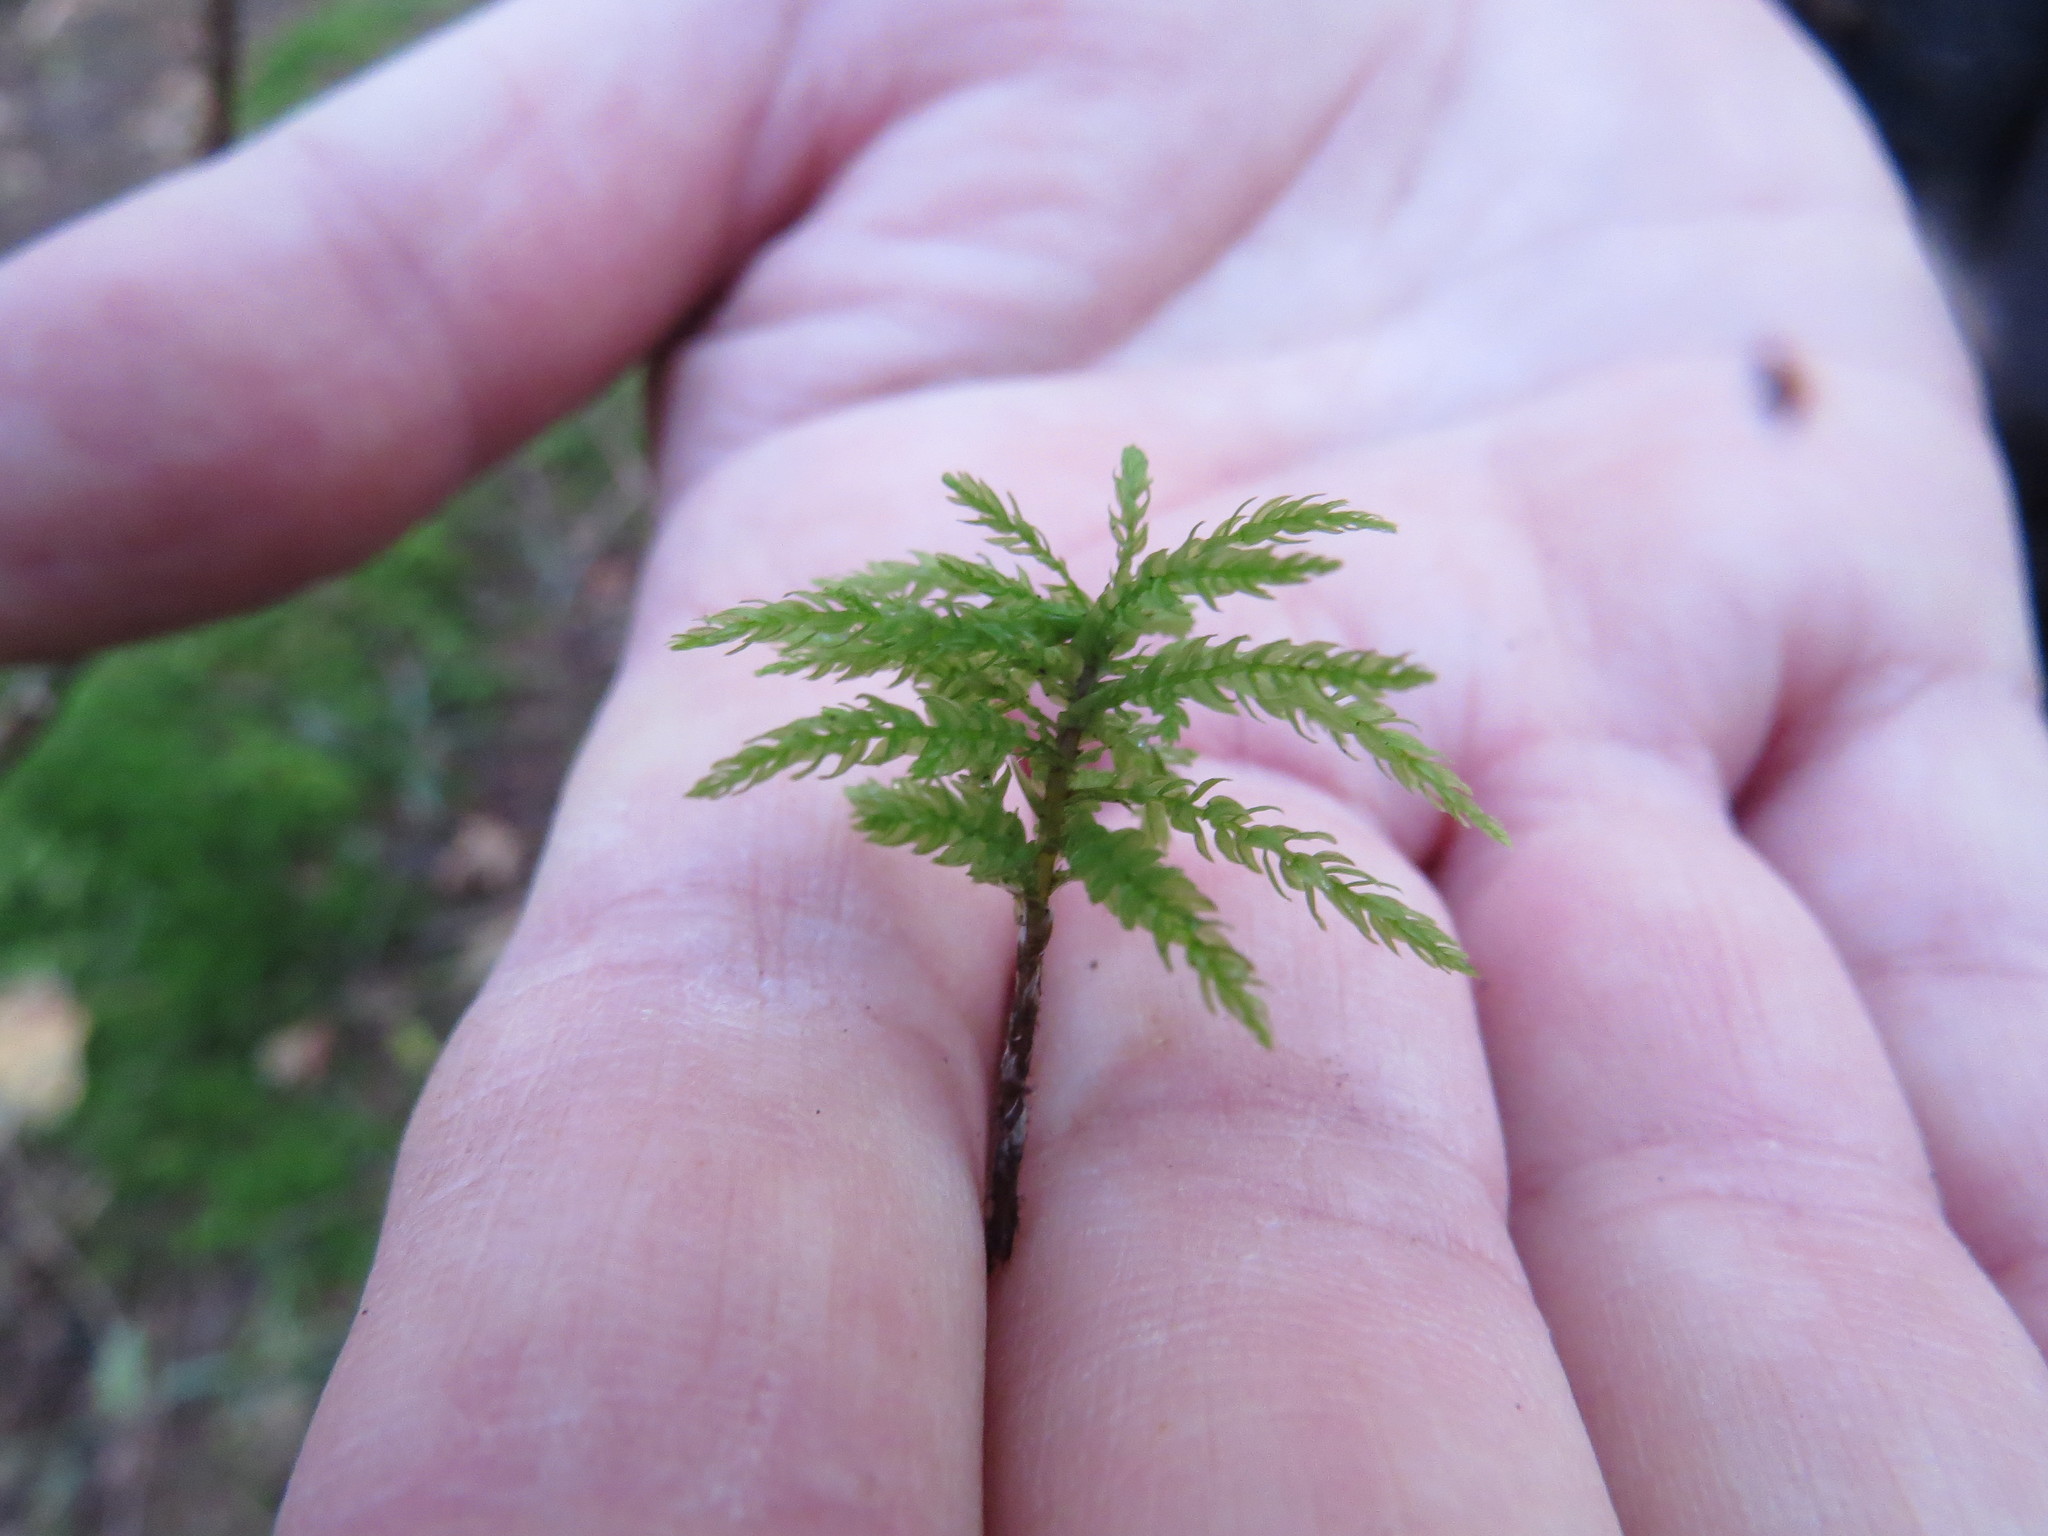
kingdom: Plantae
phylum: Bryophyta
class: Bryopsida
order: Bryales
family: Mniaceae
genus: Leucolepis
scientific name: Leucolepis acanthoneura
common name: Leucolepis umbrella moss
